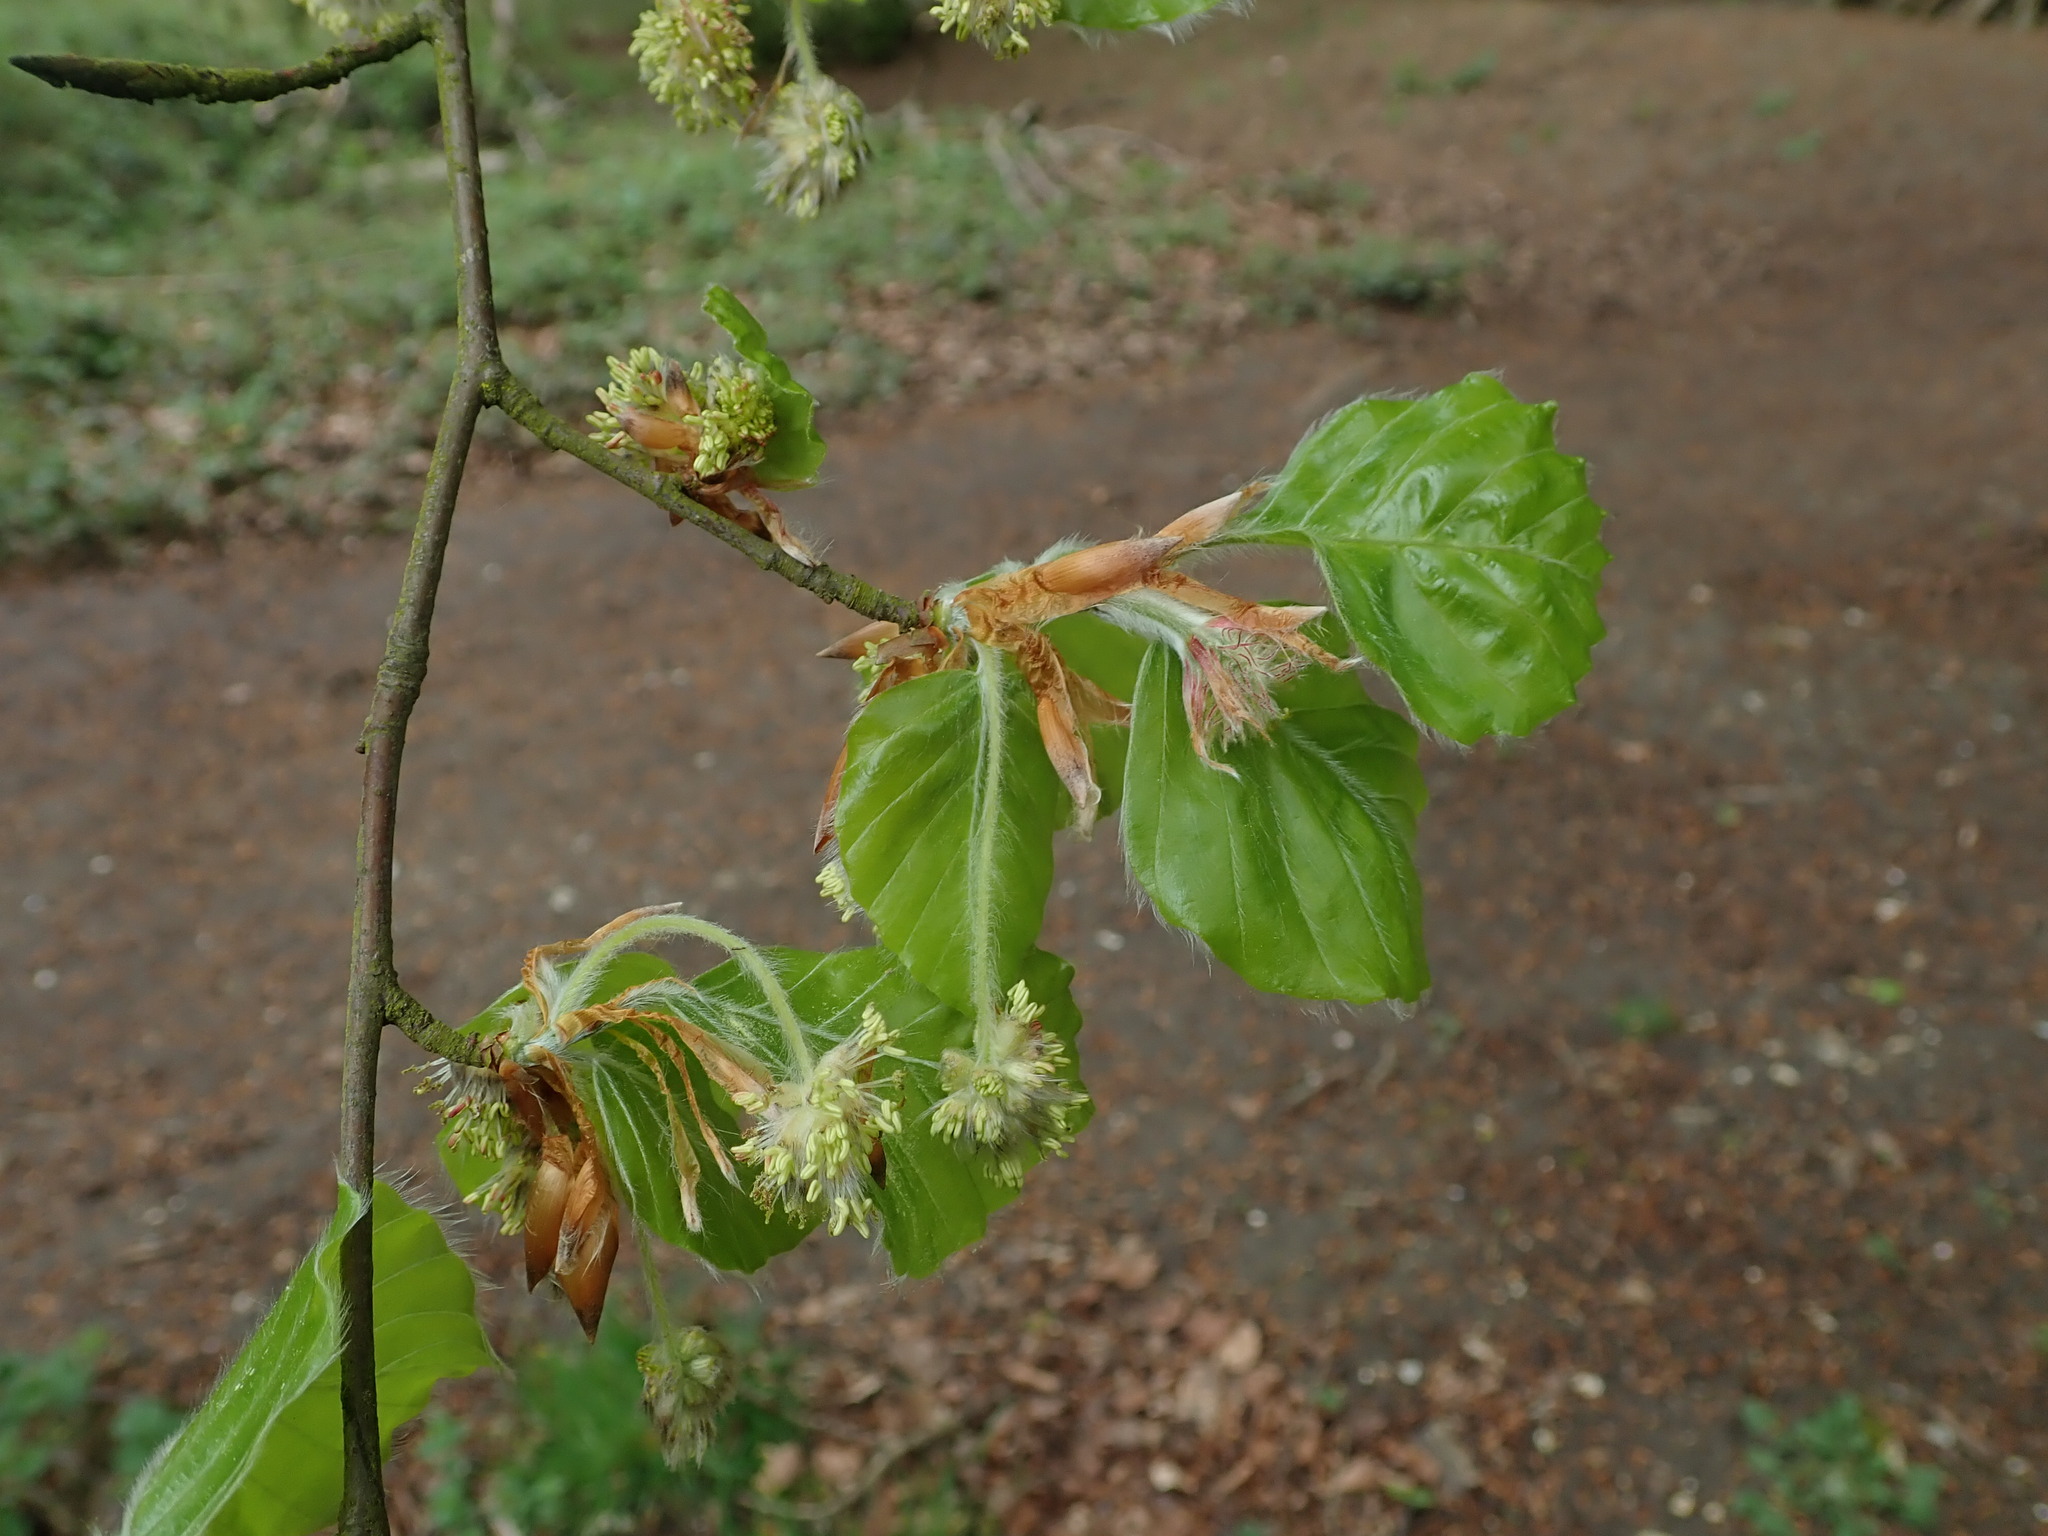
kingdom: Plantae
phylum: Tracheophyta
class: Magnoliopsida
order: Fagales
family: Fagaceae
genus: Fagus
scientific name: Fagus sylvatica
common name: Beech
